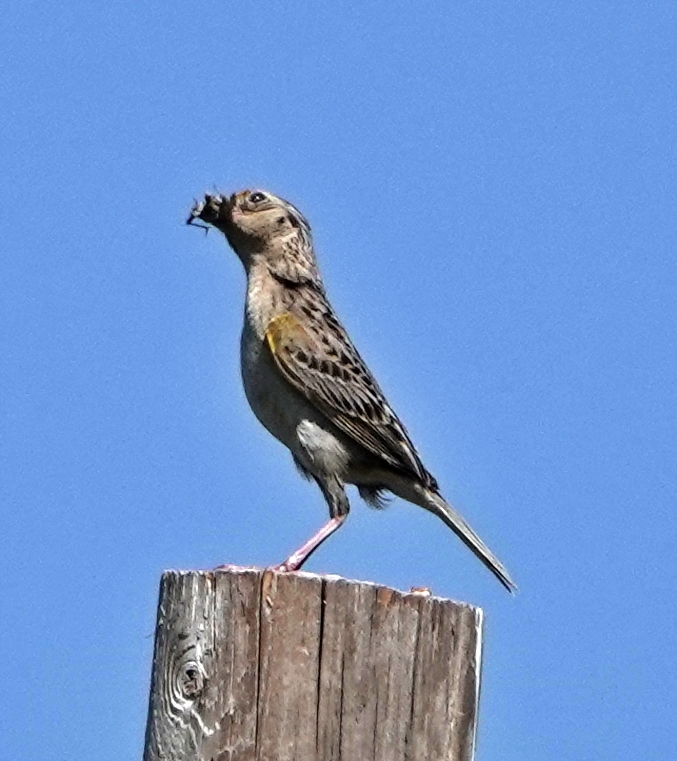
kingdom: Animalia
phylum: Chordata
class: Aves
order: Passeriformes
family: Passerellidae
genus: Ammodramus
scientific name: Ammodramus savannarum
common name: Grasshopper sparrow
